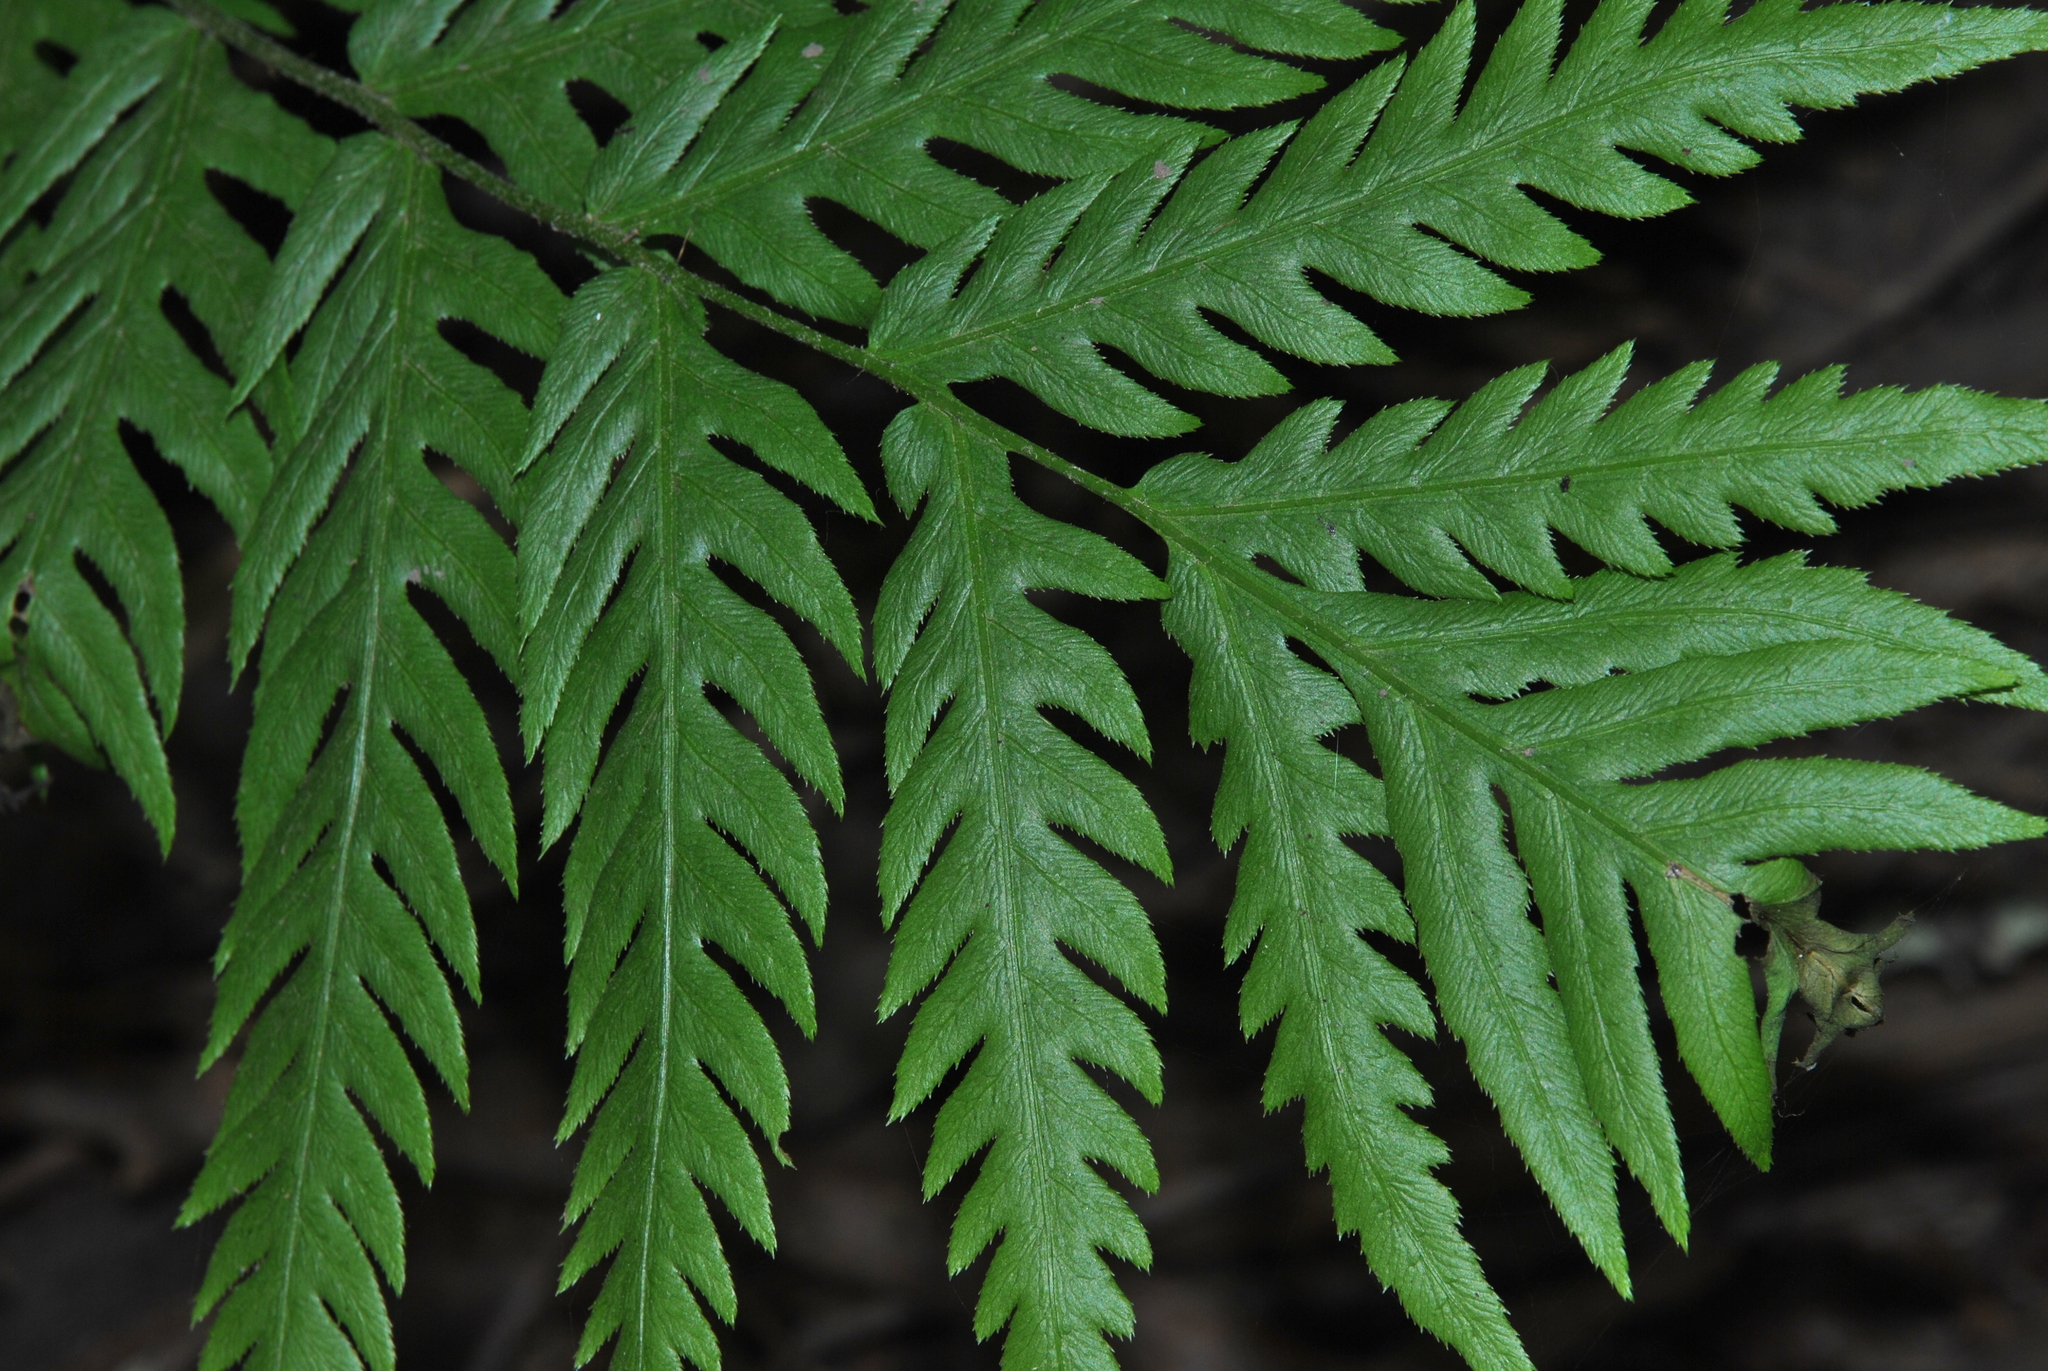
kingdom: Plantae
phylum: Tracheophyta
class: Polypodiopsida
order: Polypodiales
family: Blechnaceae
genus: Woodwardia
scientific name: Woodwardia fimbriata
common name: Giant chain fern
